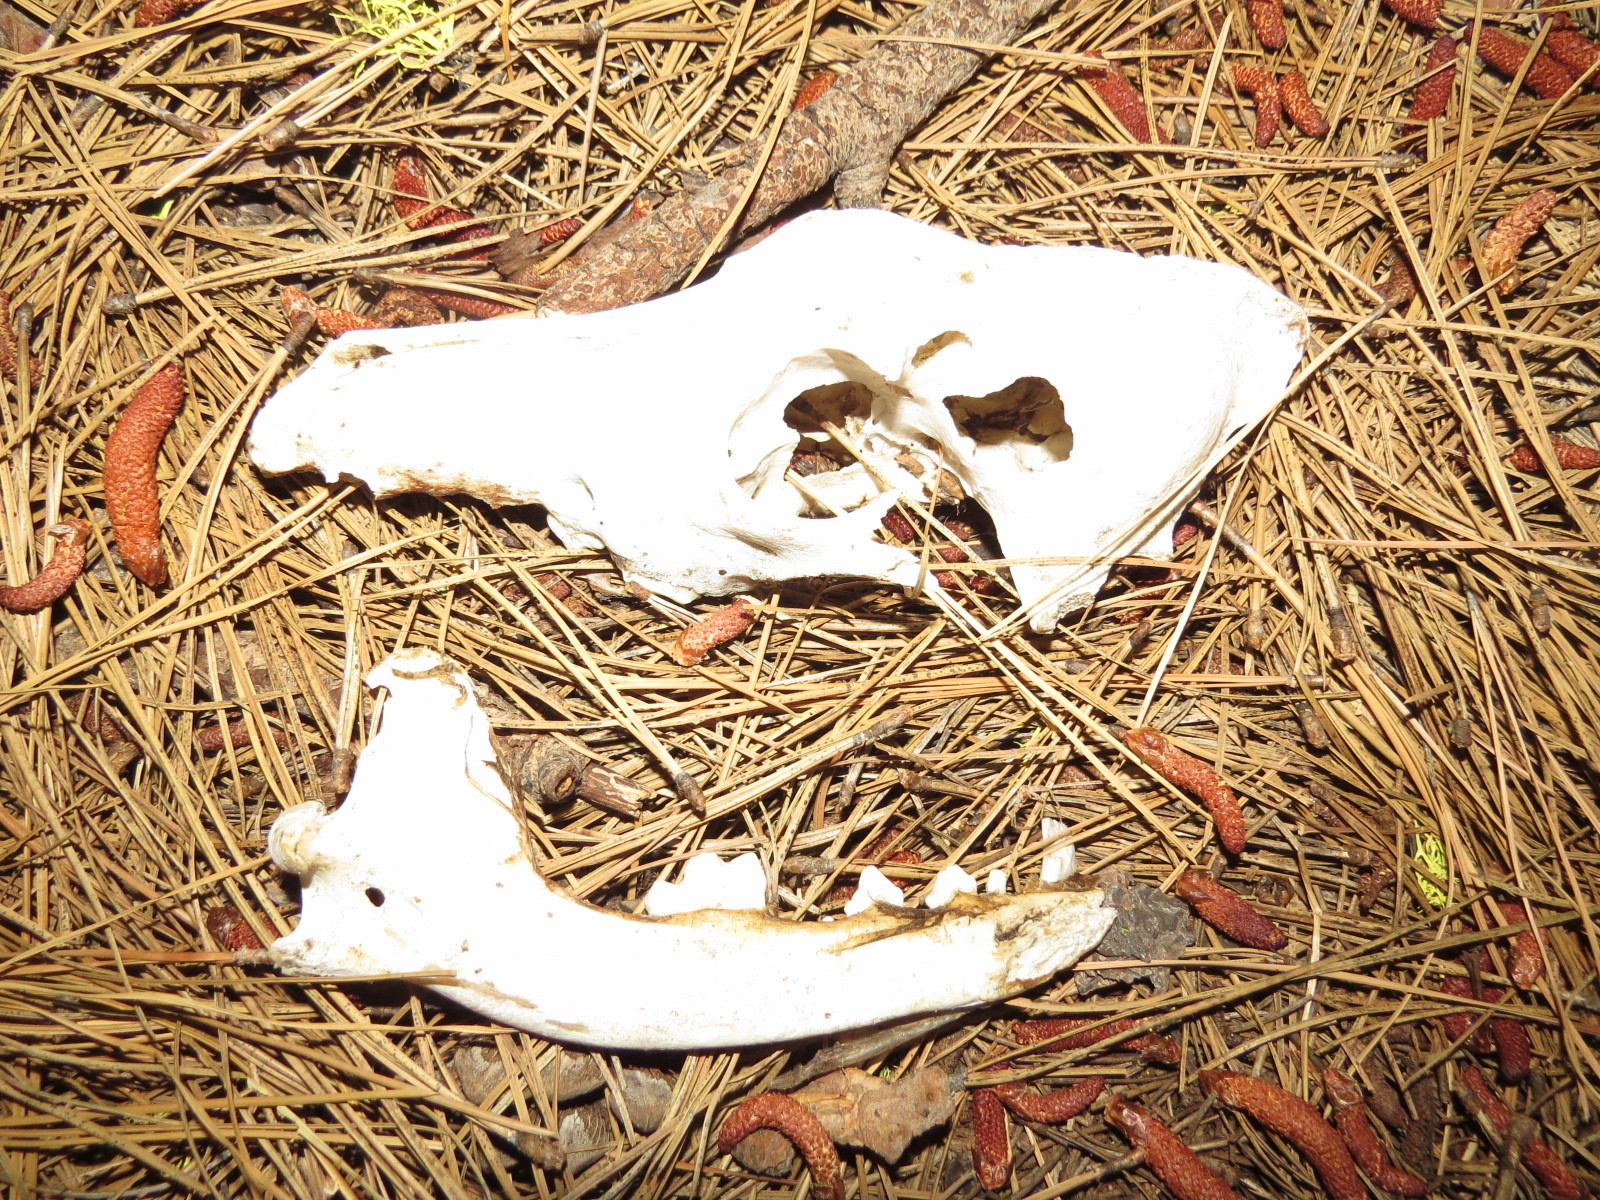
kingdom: Animalia
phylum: Chordata
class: Mammalia
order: Carnivora
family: Canidae
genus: Canis
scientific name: Canis latrans
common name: Coyote
